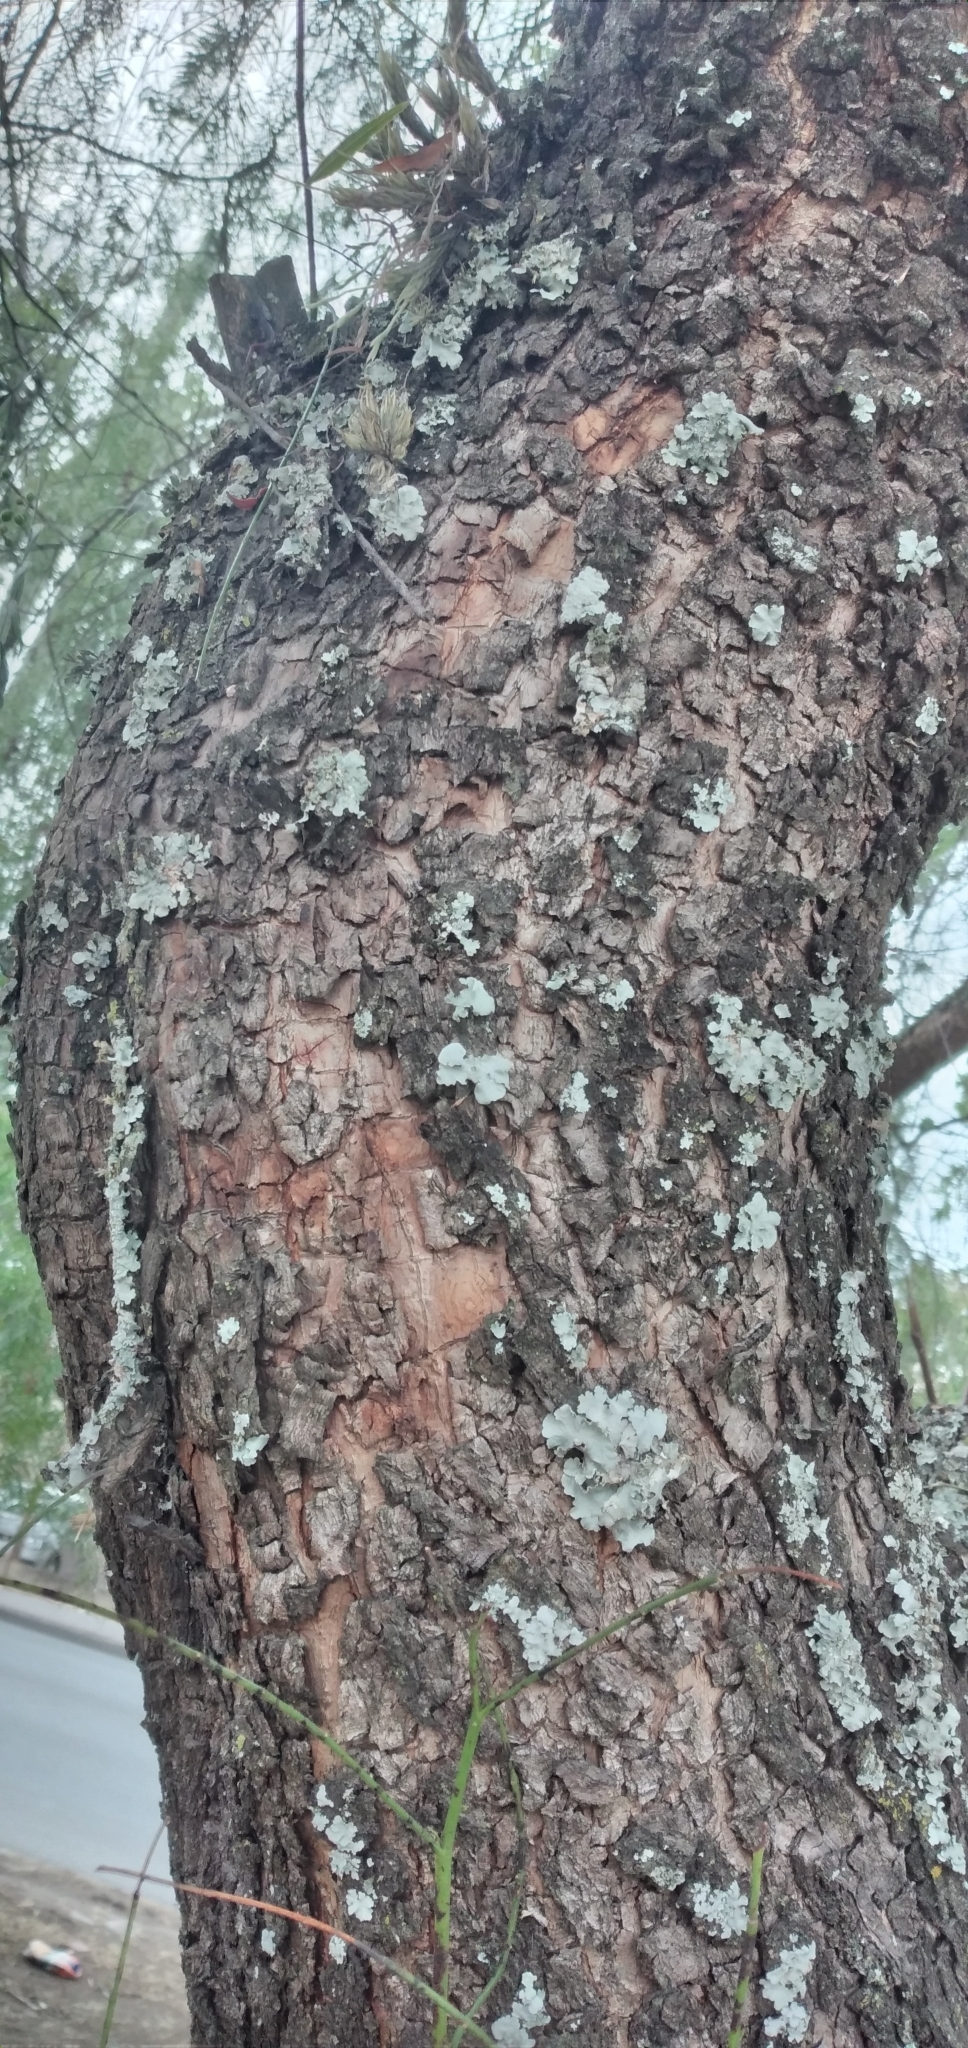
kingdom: Plantae
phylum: Tracheophyta
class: Magnoliopsida
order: Sapindales
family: Anacardiaceae
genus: Schinus
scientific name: Schinus molle
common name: Peruvian peppertree
